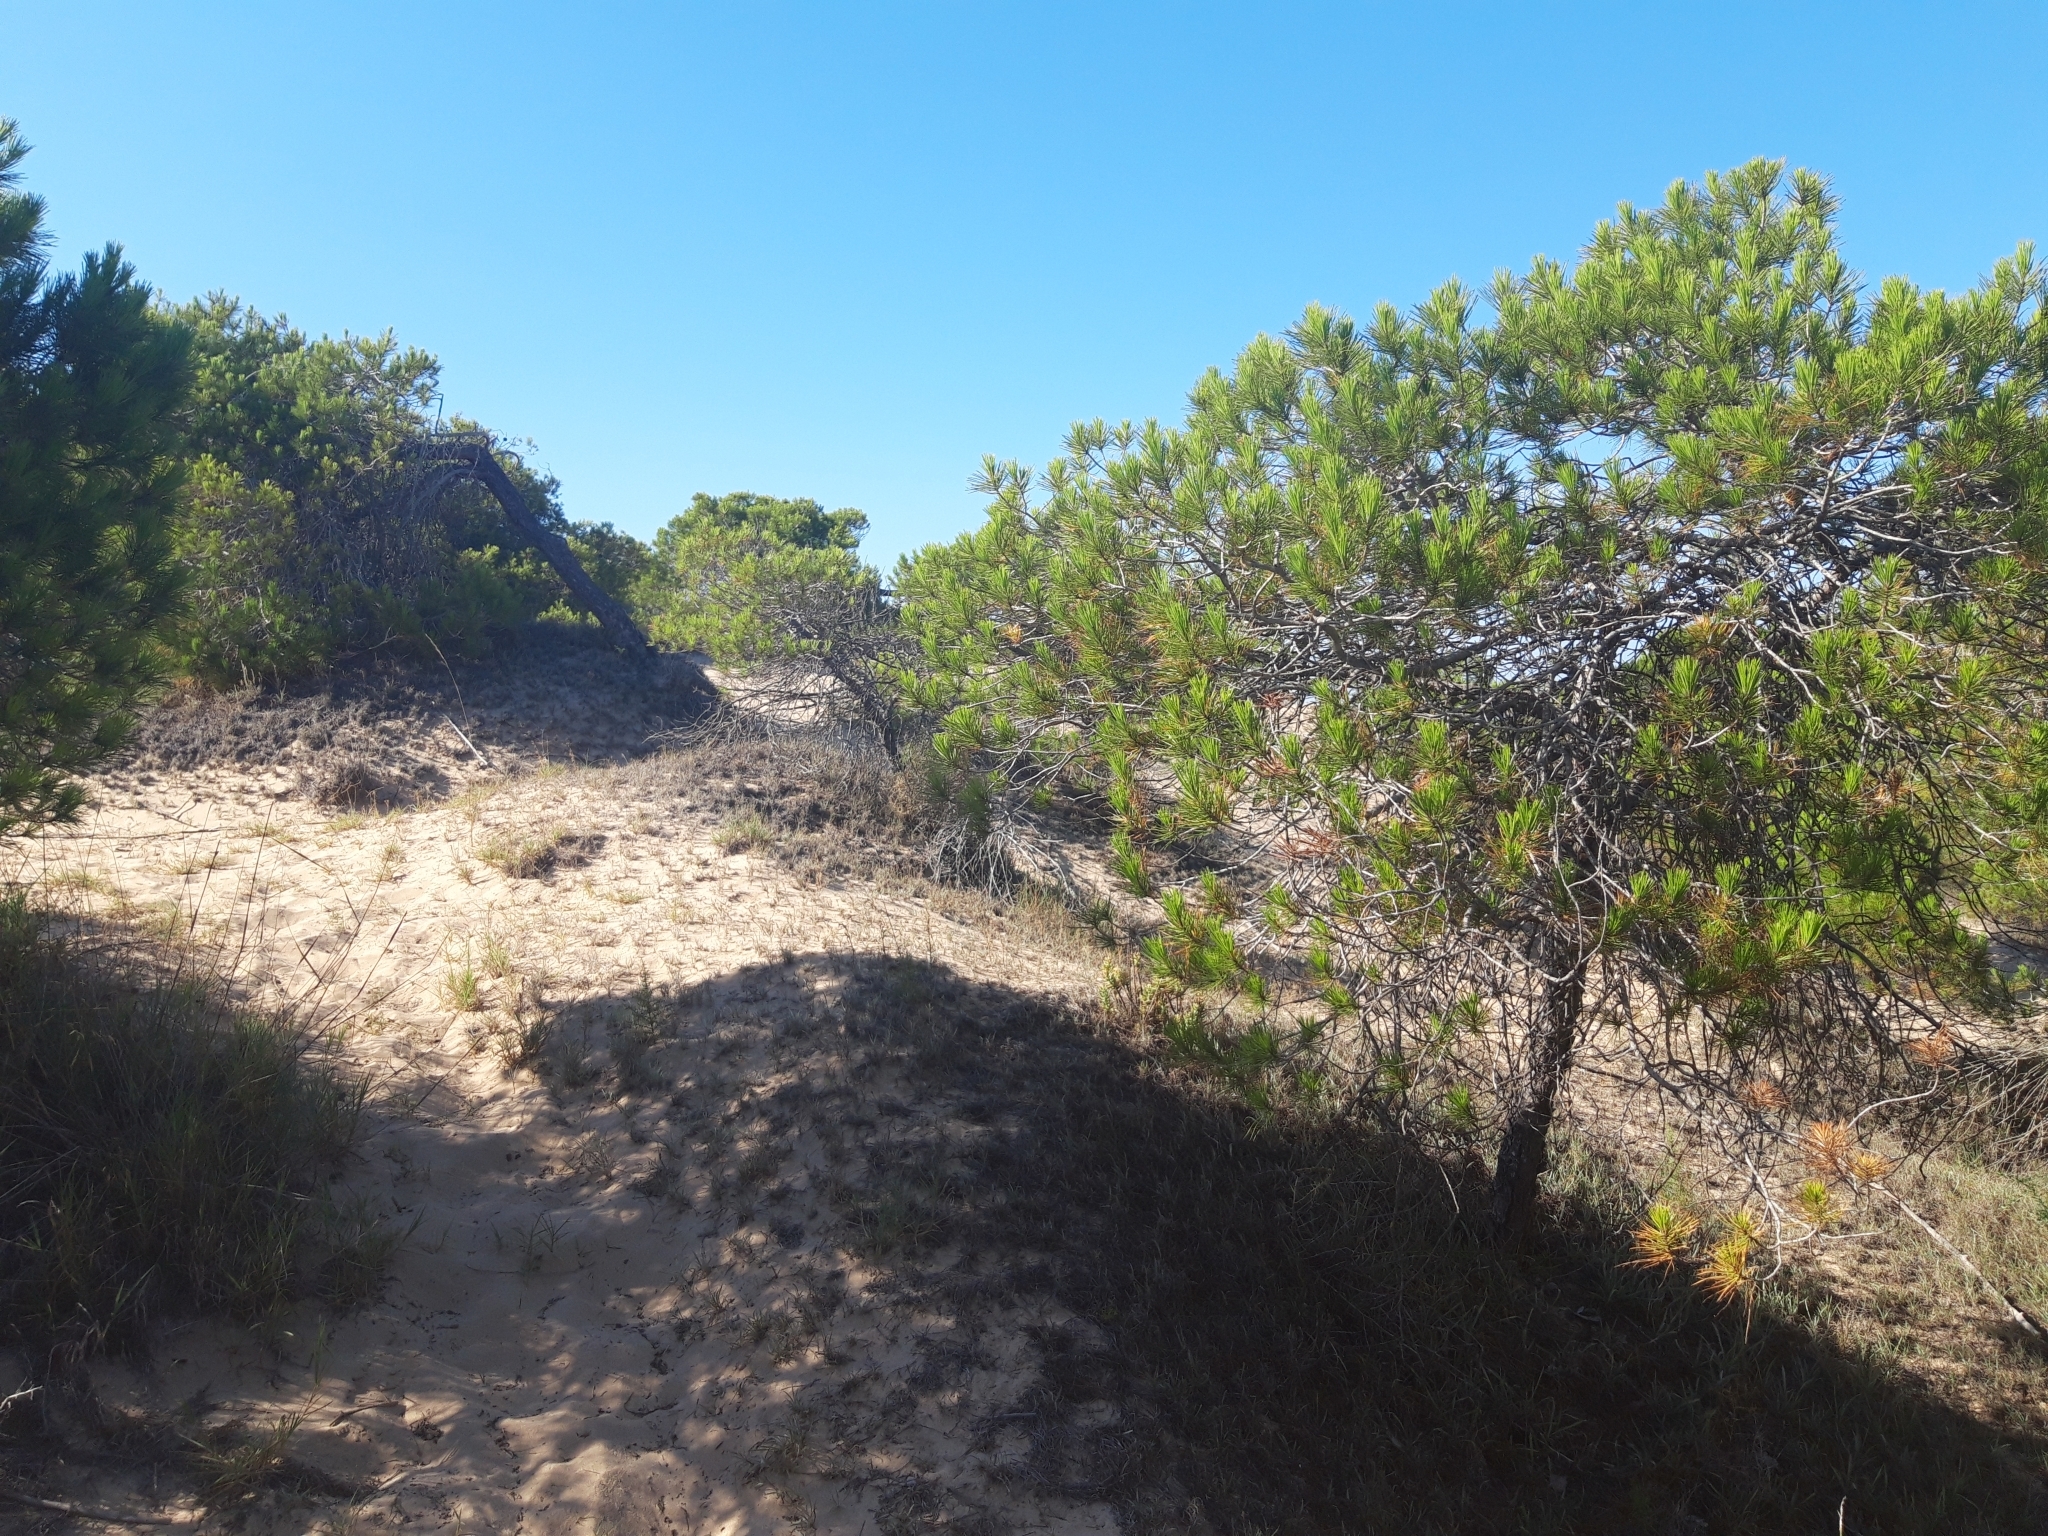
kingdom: Plantae
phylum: Tracheophyta
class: Pinopsida
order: Pinales
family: Pinaceae
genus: Pinus
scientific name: Pinus halepensis
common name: Aleppo pine
